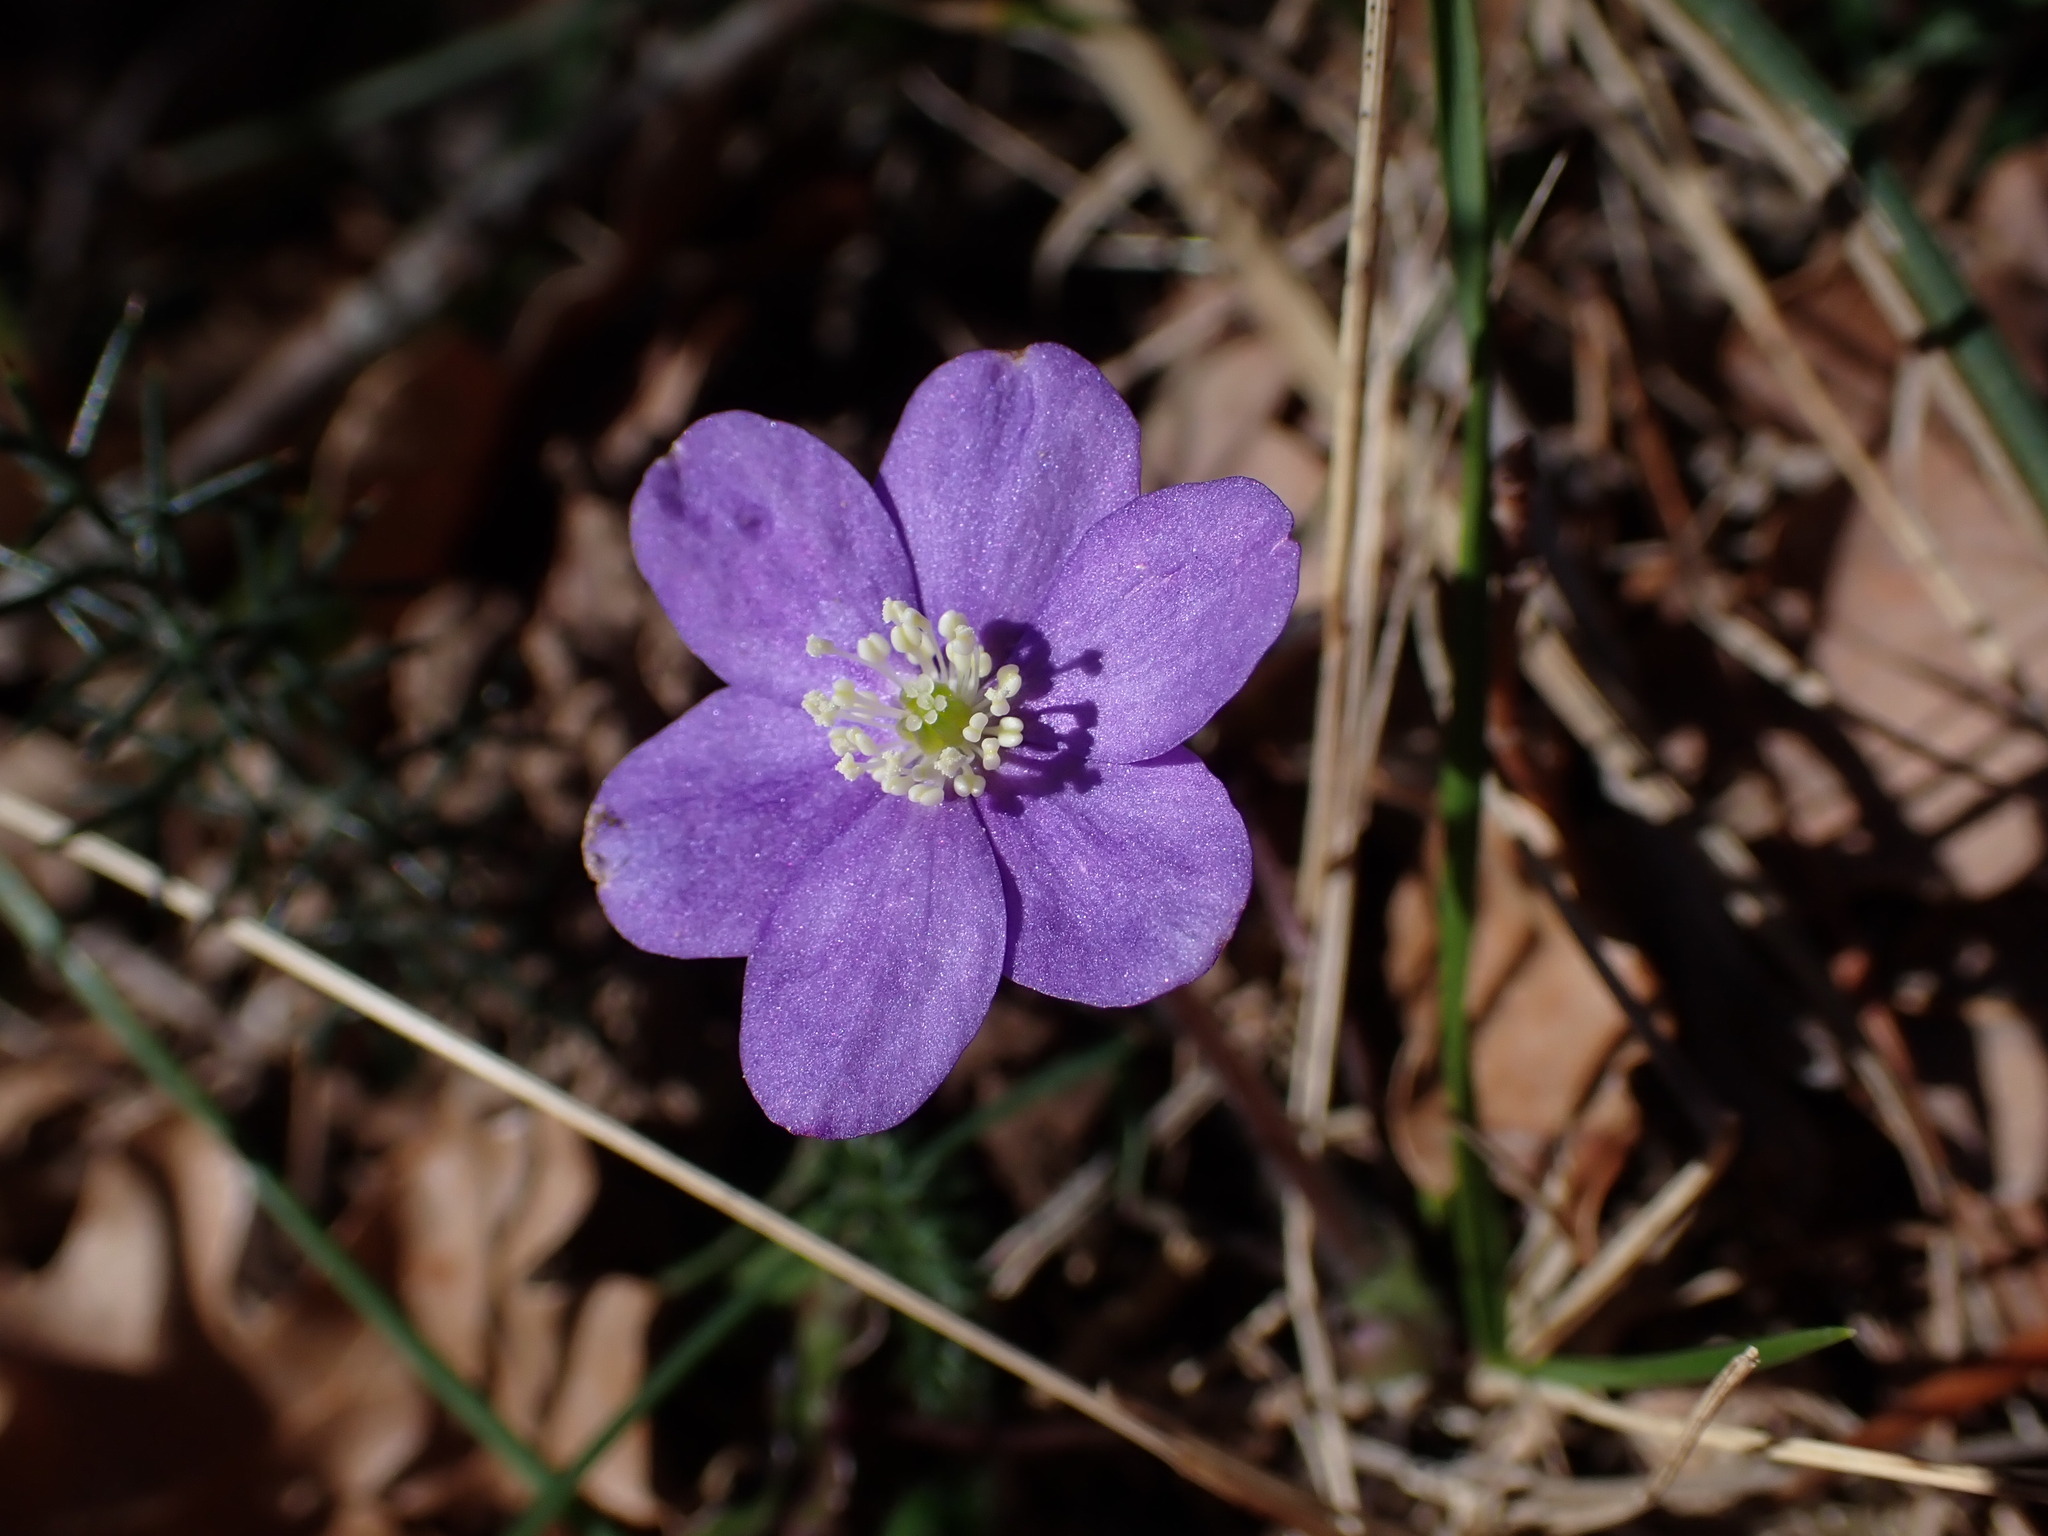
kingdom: Plantae
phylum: Tracheophyta
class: Magnoliopsida
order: Ranunculales
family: Ranunculaceae
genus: Hepatica
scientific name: Hepatica nobilis
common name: Liverleaf
